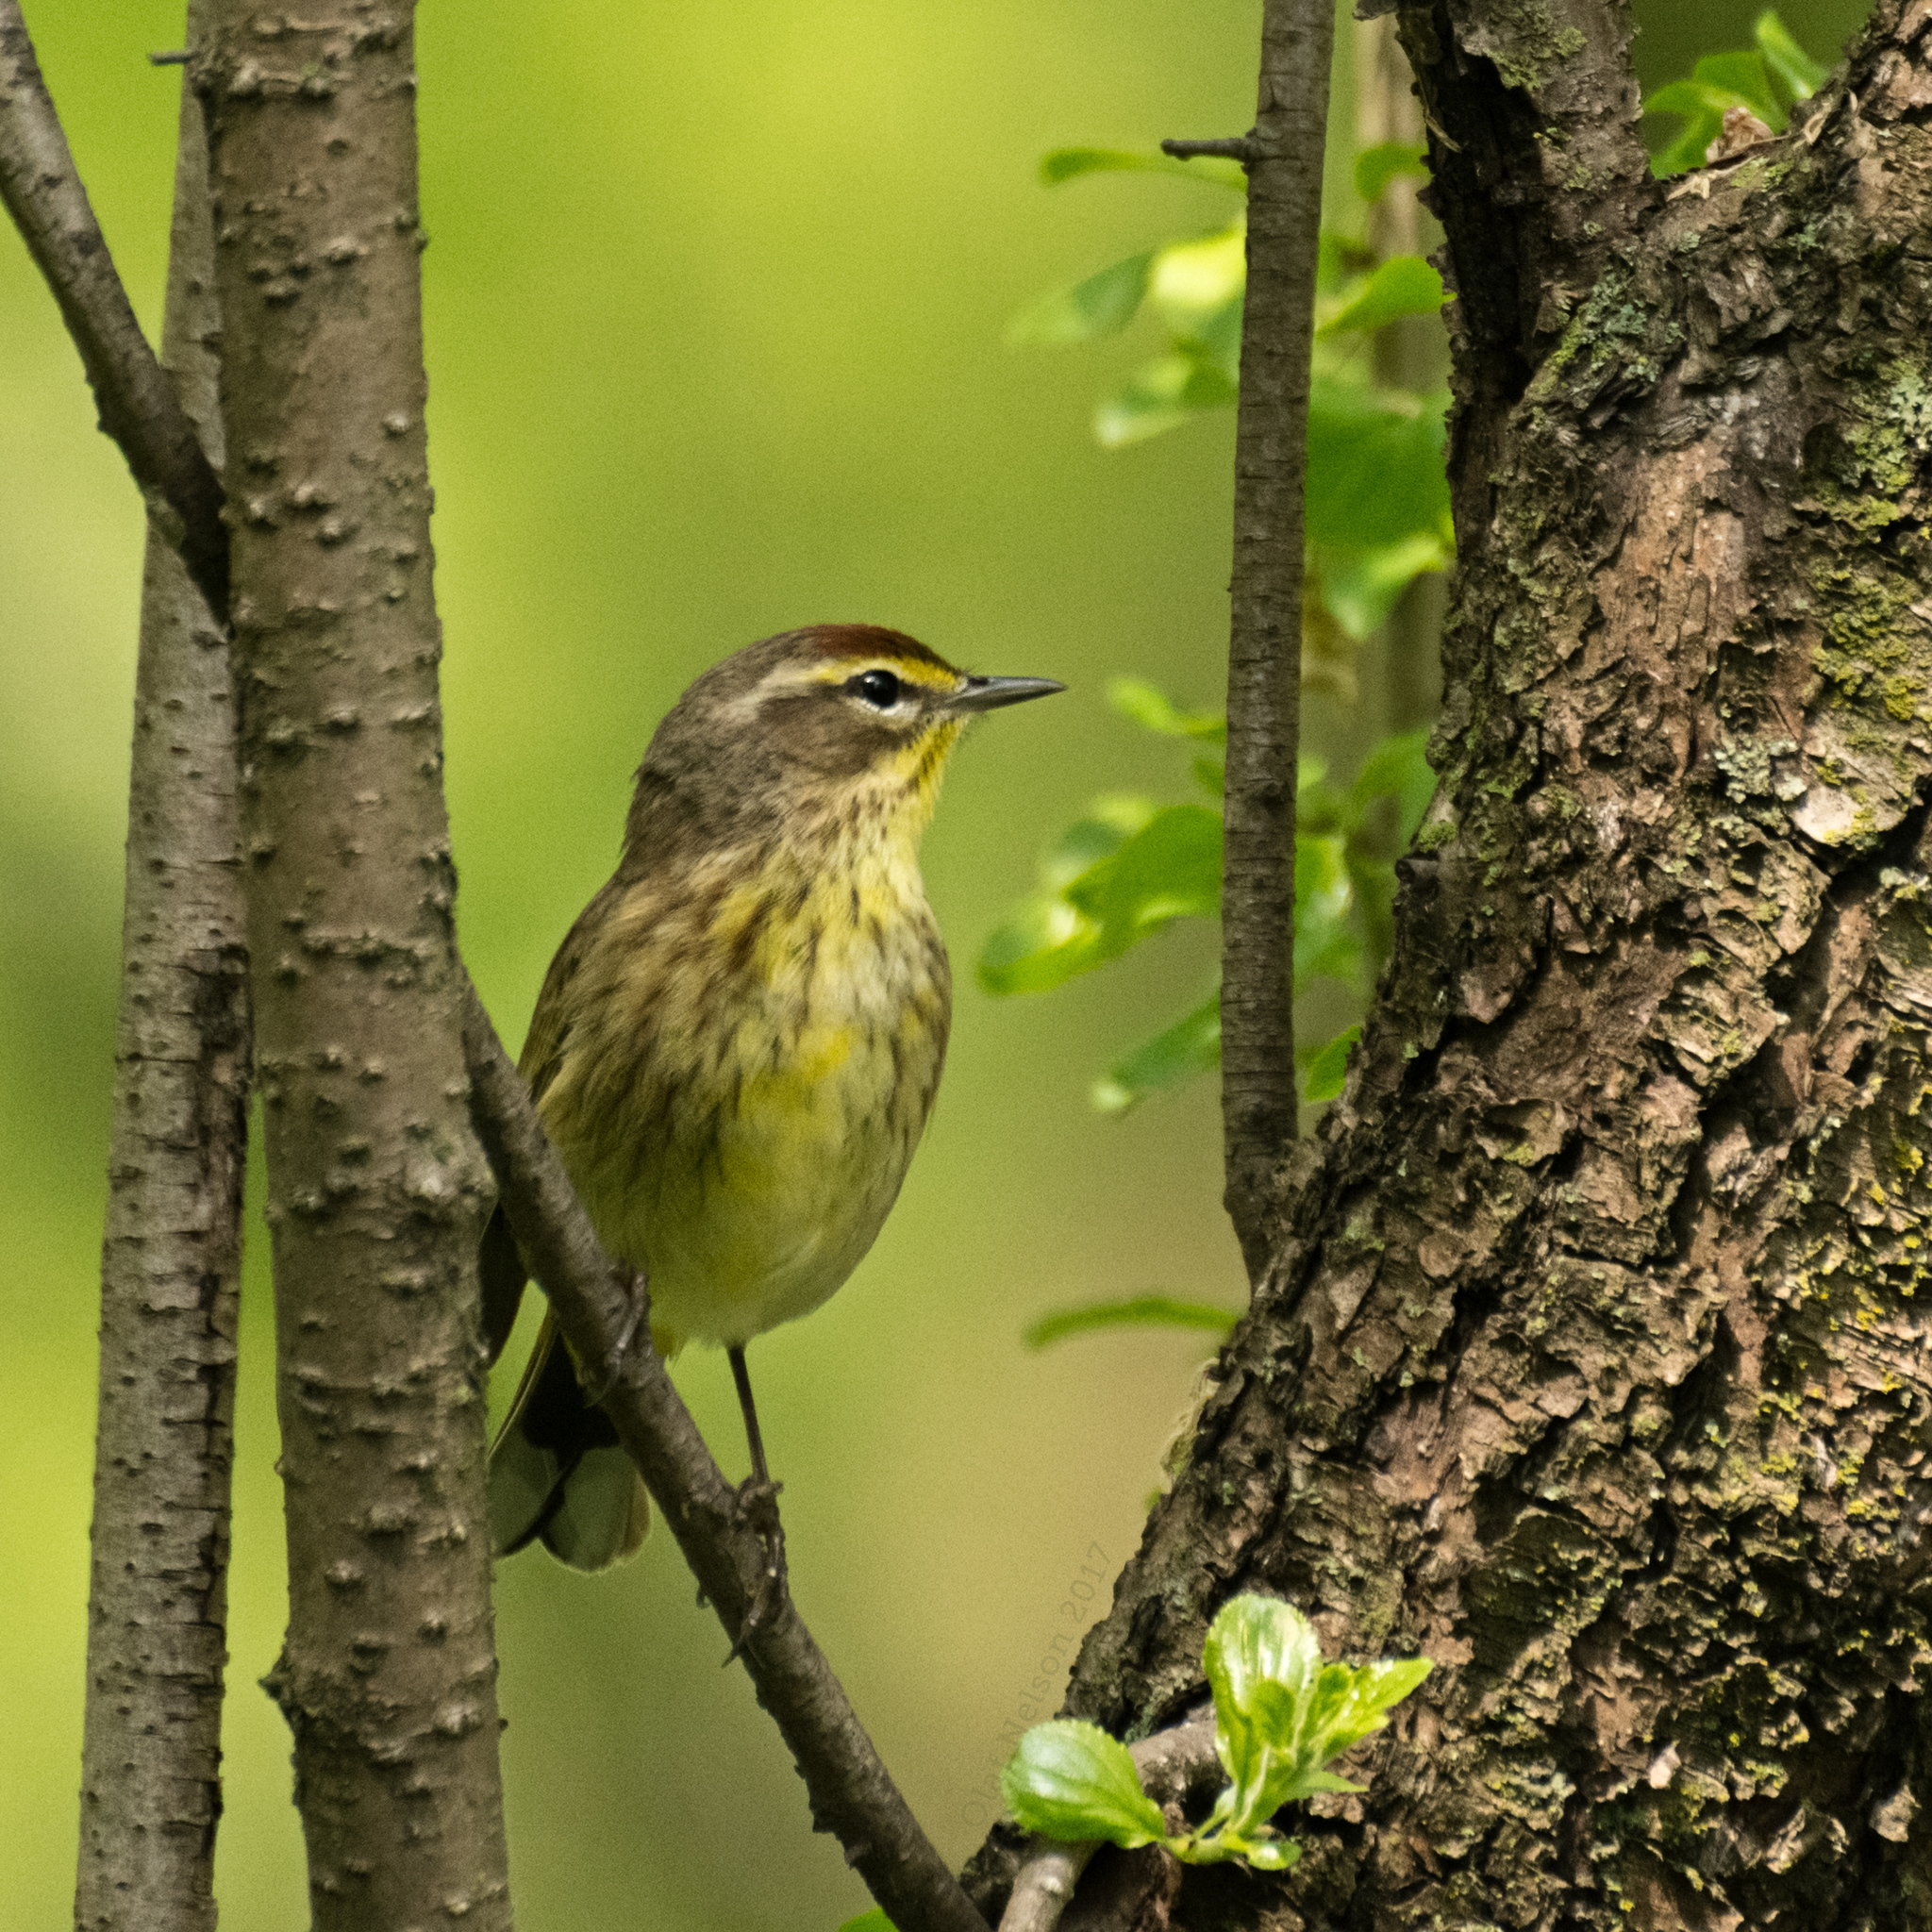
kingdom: Animalia
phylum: Chordata
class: Aves
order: Passeriformes
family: Parulidae
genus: Setophaga
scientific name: Setophaga palmarum
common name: Palm warbler
